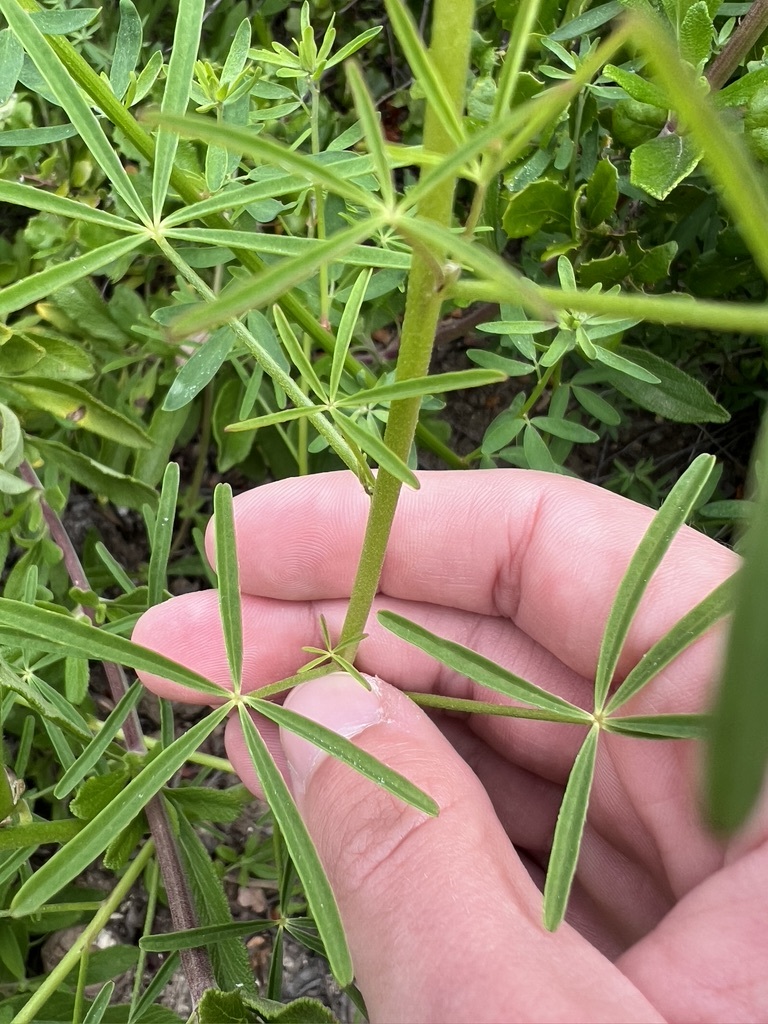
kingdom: Plantae
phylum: Tracheophyta
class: Magnoliopsida
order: Fabales
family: Fabaceae
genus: Lupinus
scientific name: Lupinus truncatus
